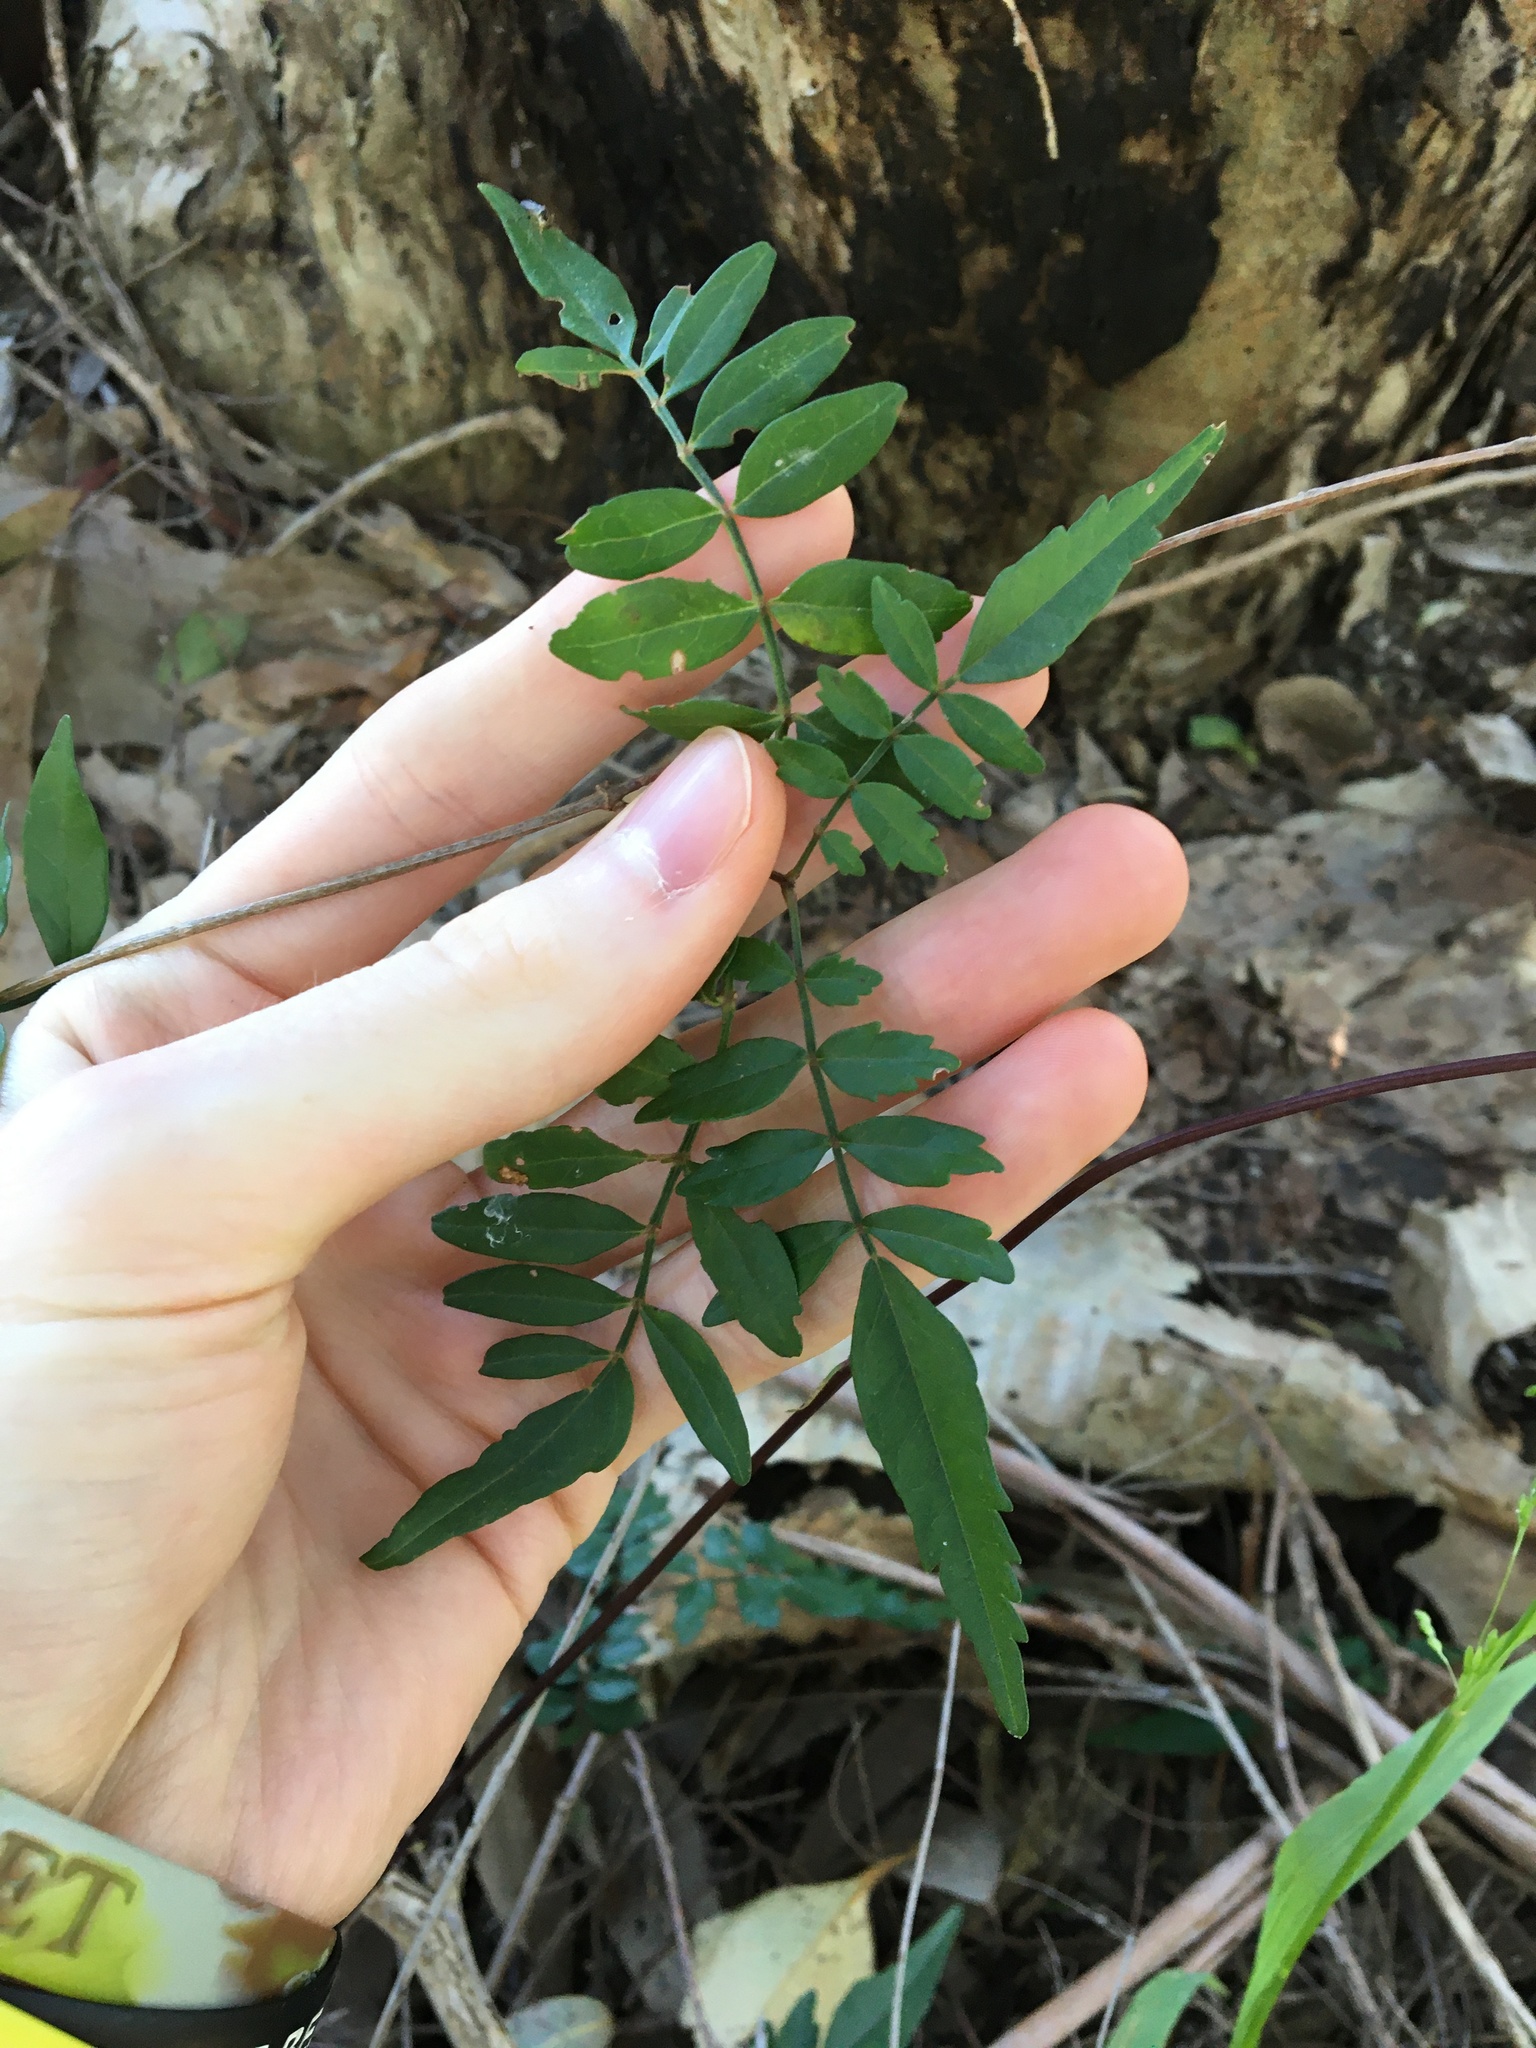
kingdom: Plantae
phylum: Tracheophyta
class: Magnoliopsida
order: Lamiales
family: Bignoniaceae
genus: Pandorea
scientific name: Pandorea pandorana
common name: Wonga-wonga-vine
